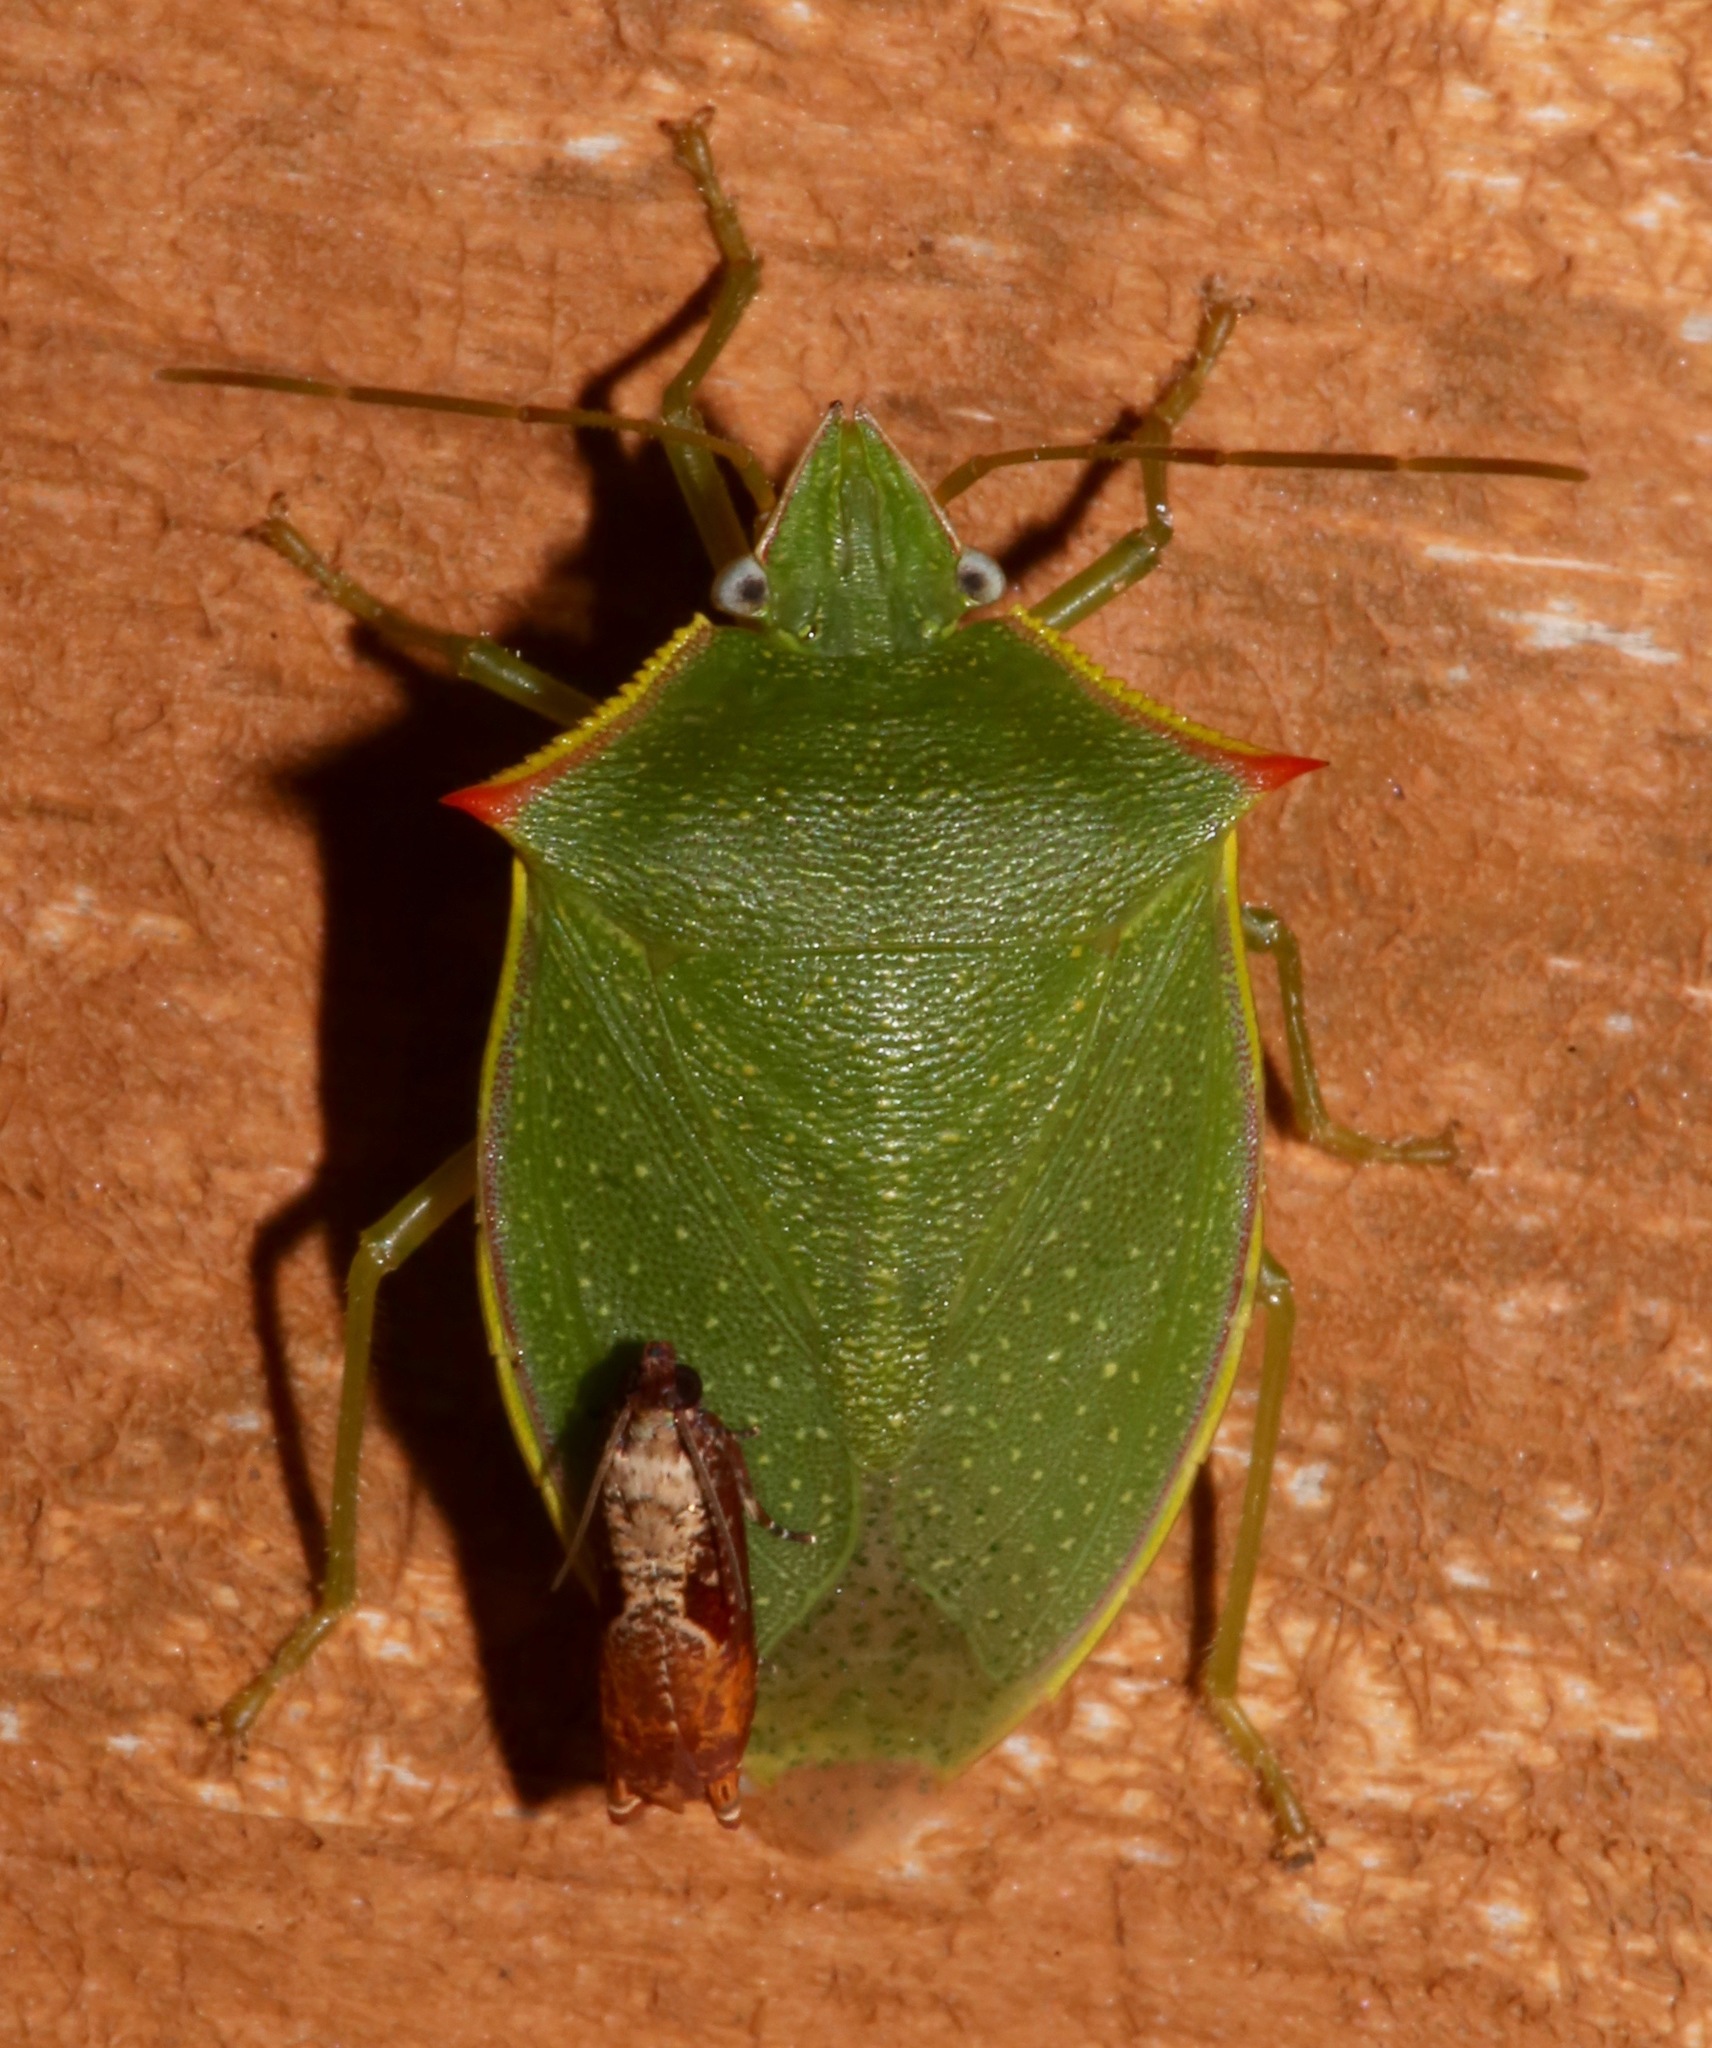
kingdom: Animalia
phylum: Arthropoda
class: Insecta
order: Hemiptera
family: Pentatomidae
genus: Loxa
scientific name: Loxa flavicollis
